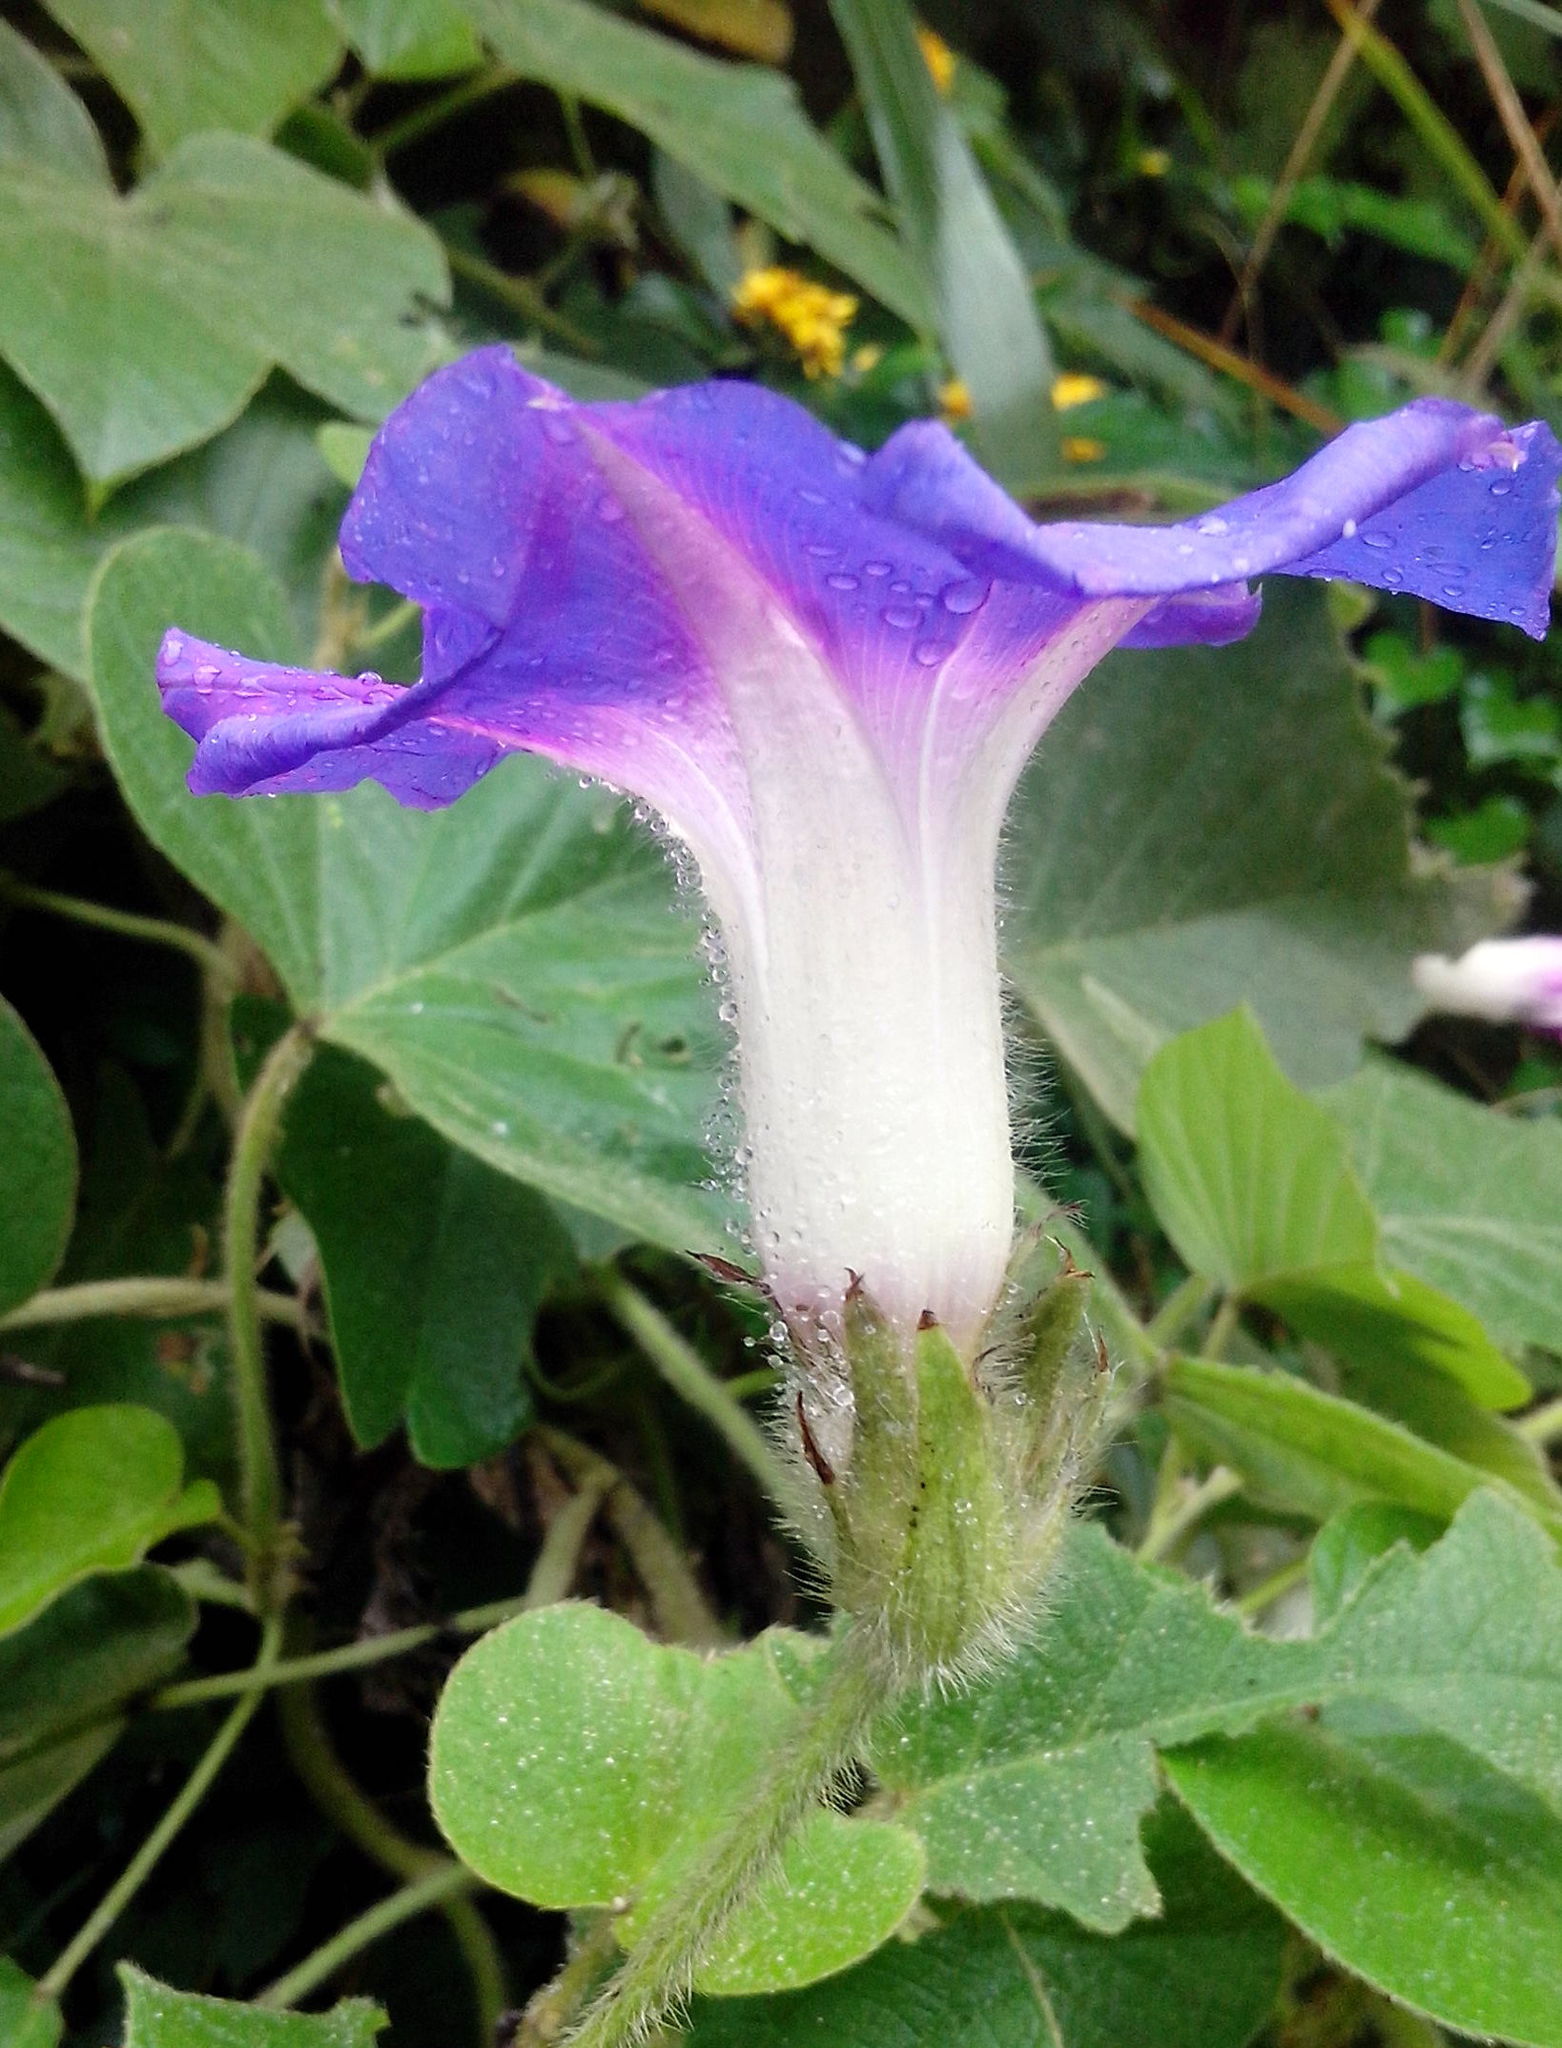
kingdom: Plantae
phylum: Tracheophyta
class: Magnoliopsida
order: Solanales
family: Convolvulaceae
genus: Ipomoea
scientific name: Ipomoea villifera
